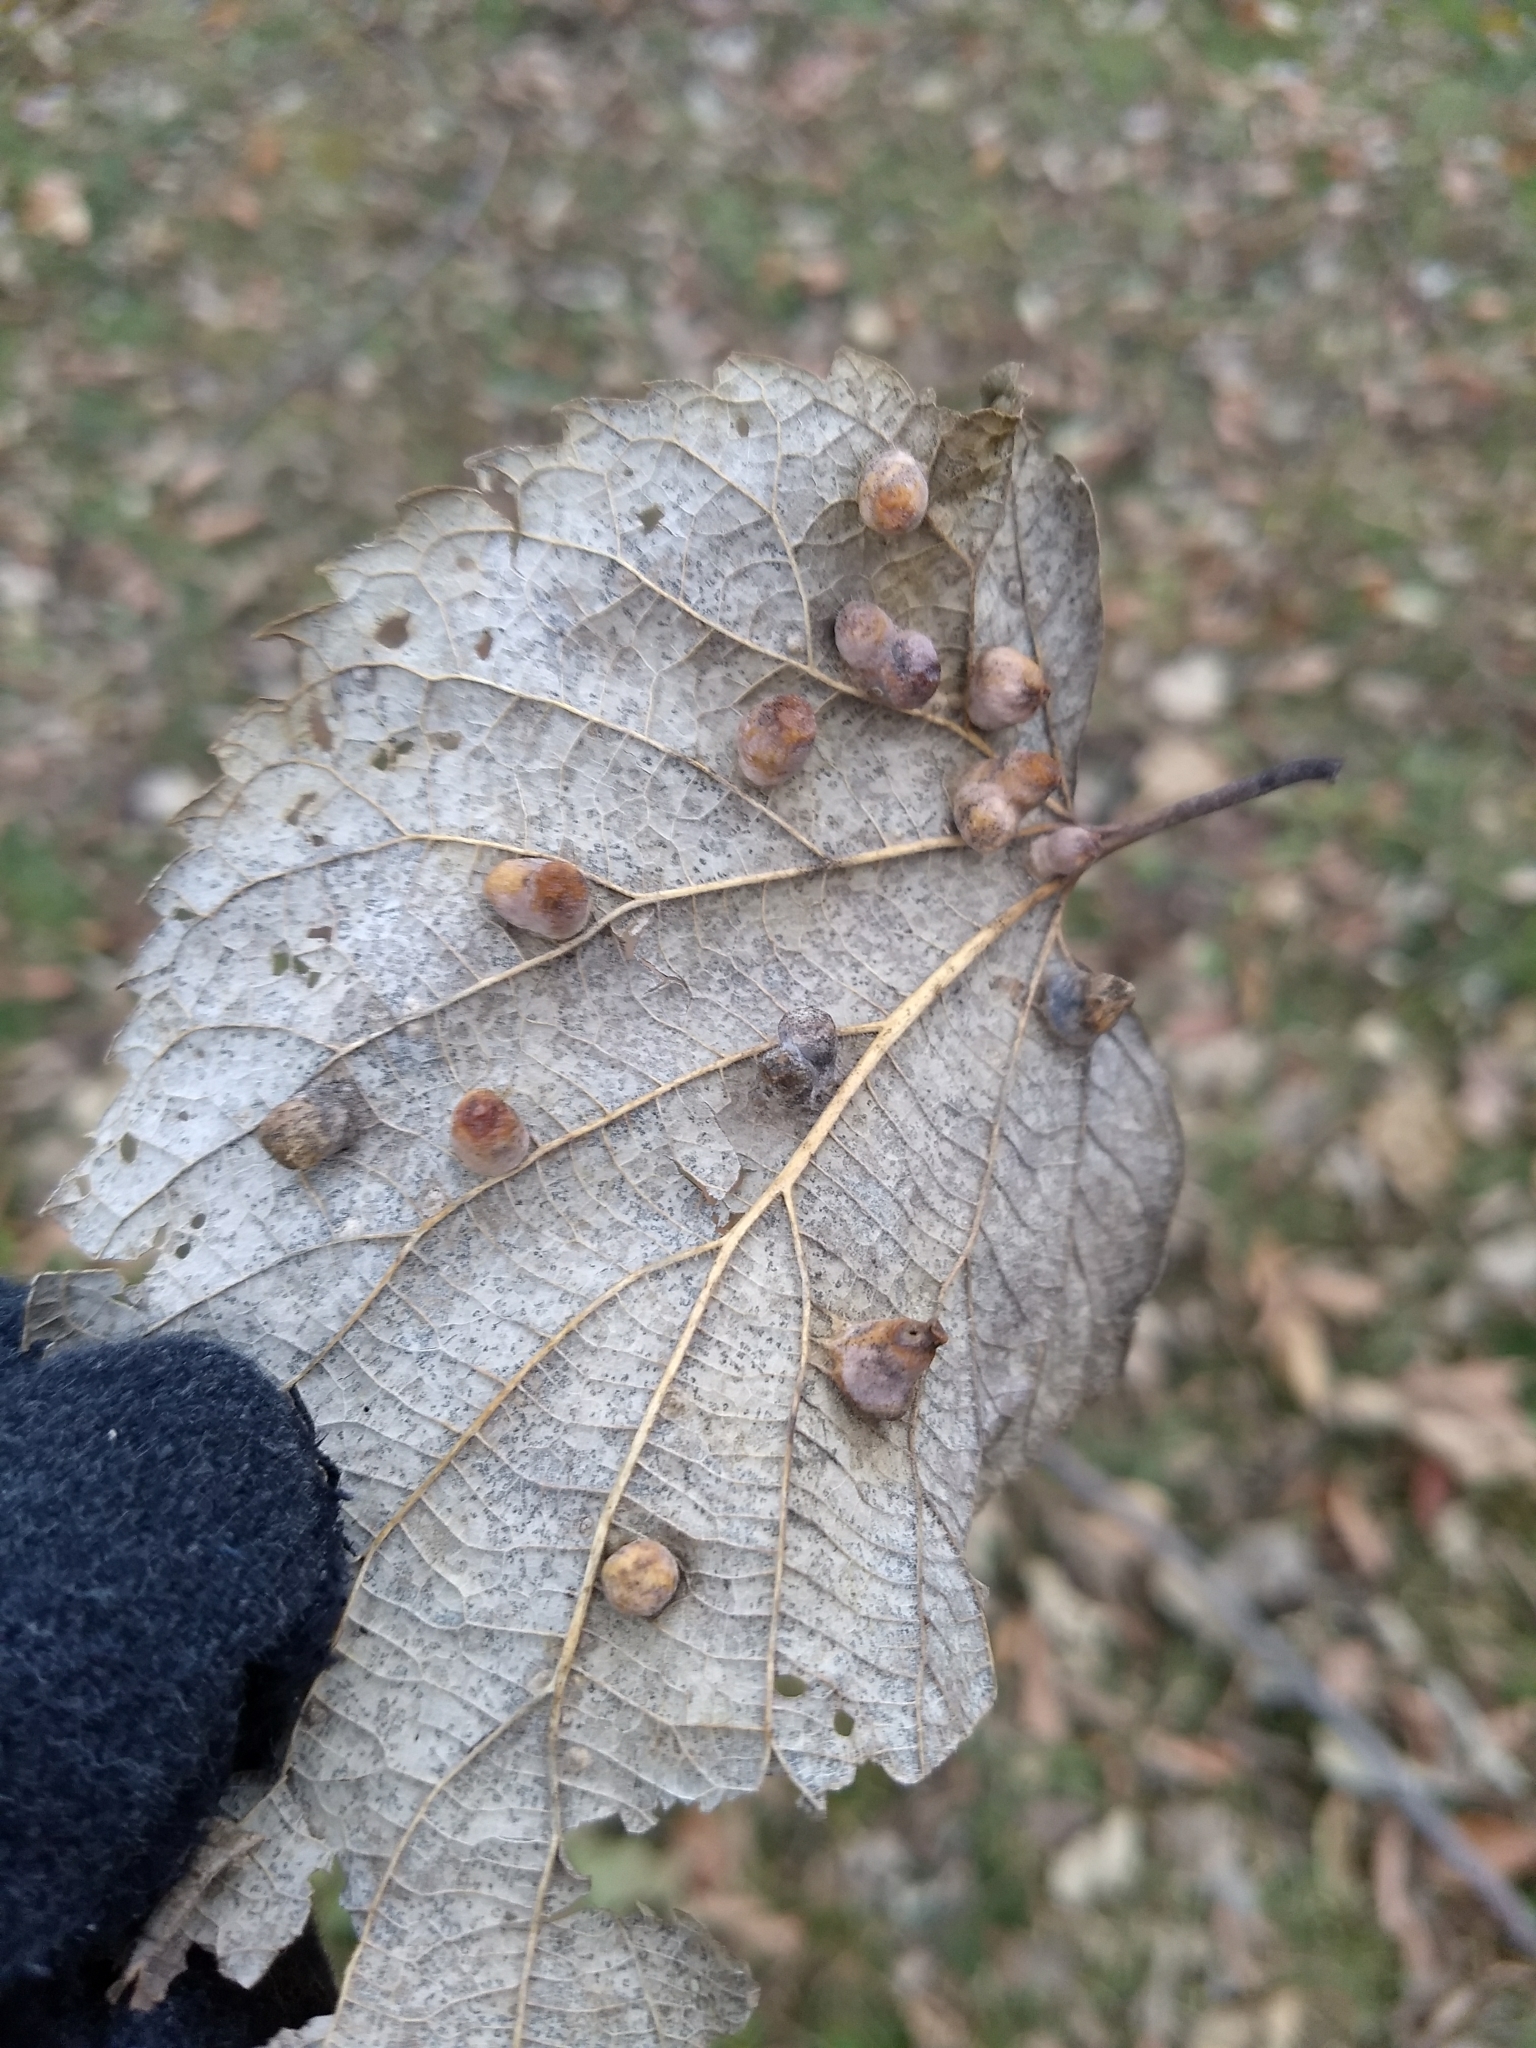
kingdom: Animalia
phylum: Arthropoda
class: Insecta
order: Hemiptera
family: Aphalaridae
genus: Pachypsylla
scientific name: Pachypsylla celtidismamma
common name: Hackberry nipplegall psyllid
